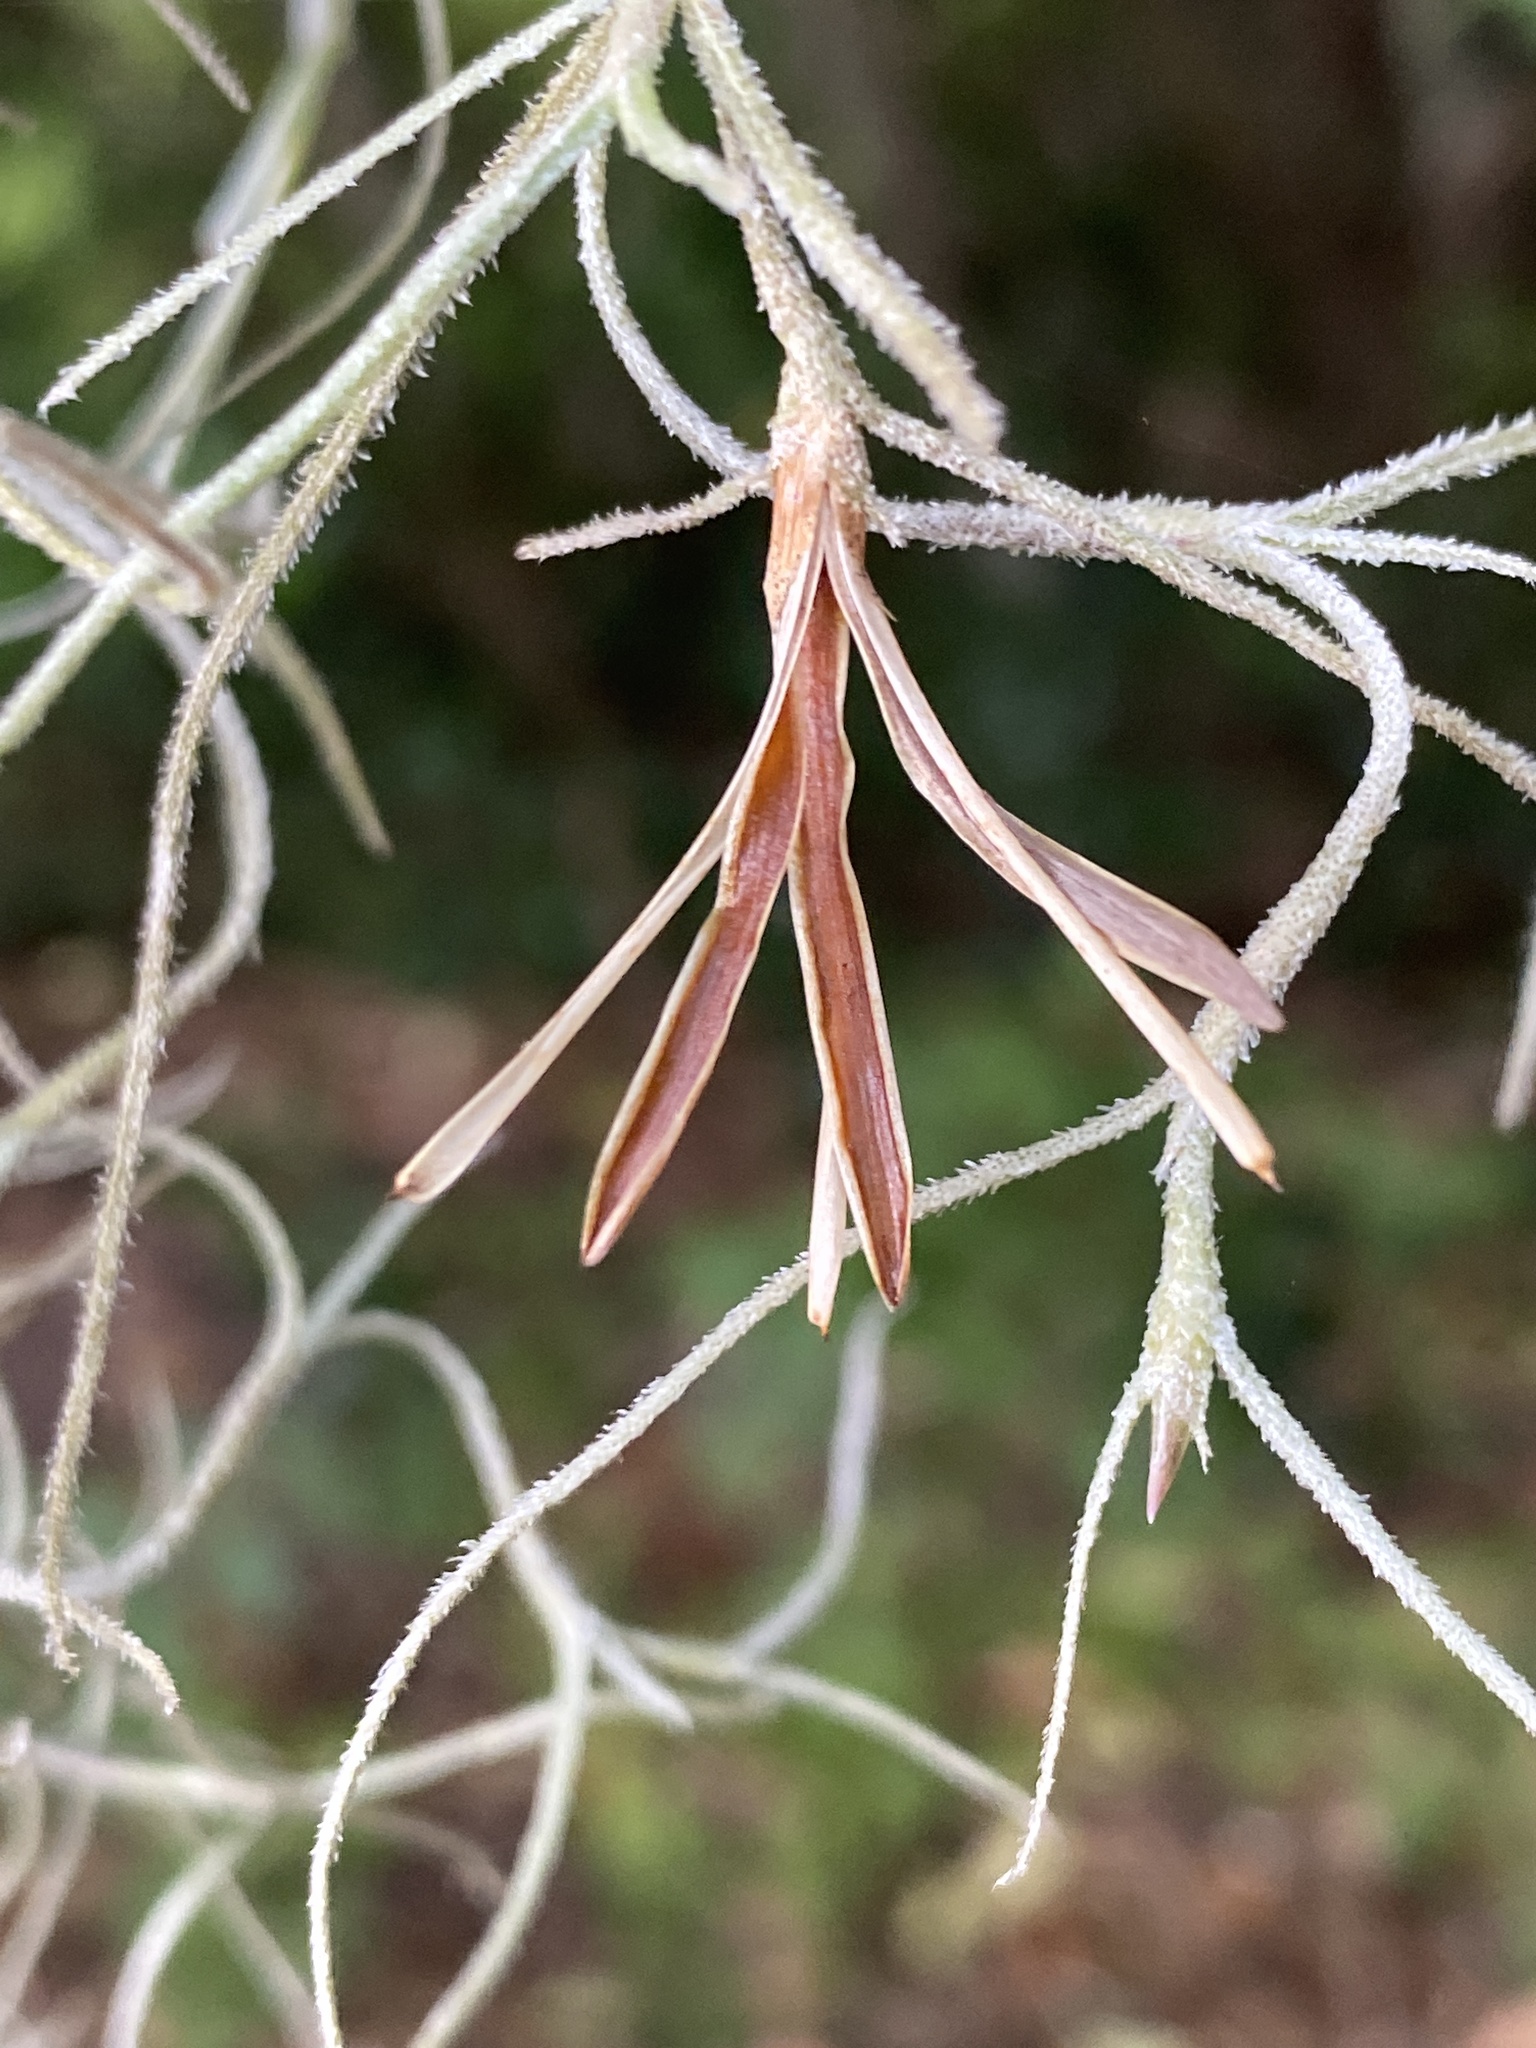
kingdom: Plantae
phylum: Tracheophyta
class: Liliopsida
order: Poales
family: Bromeliaceae
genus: Tillandsia
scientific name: Tillandsia usneoides
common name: Spanish moss
